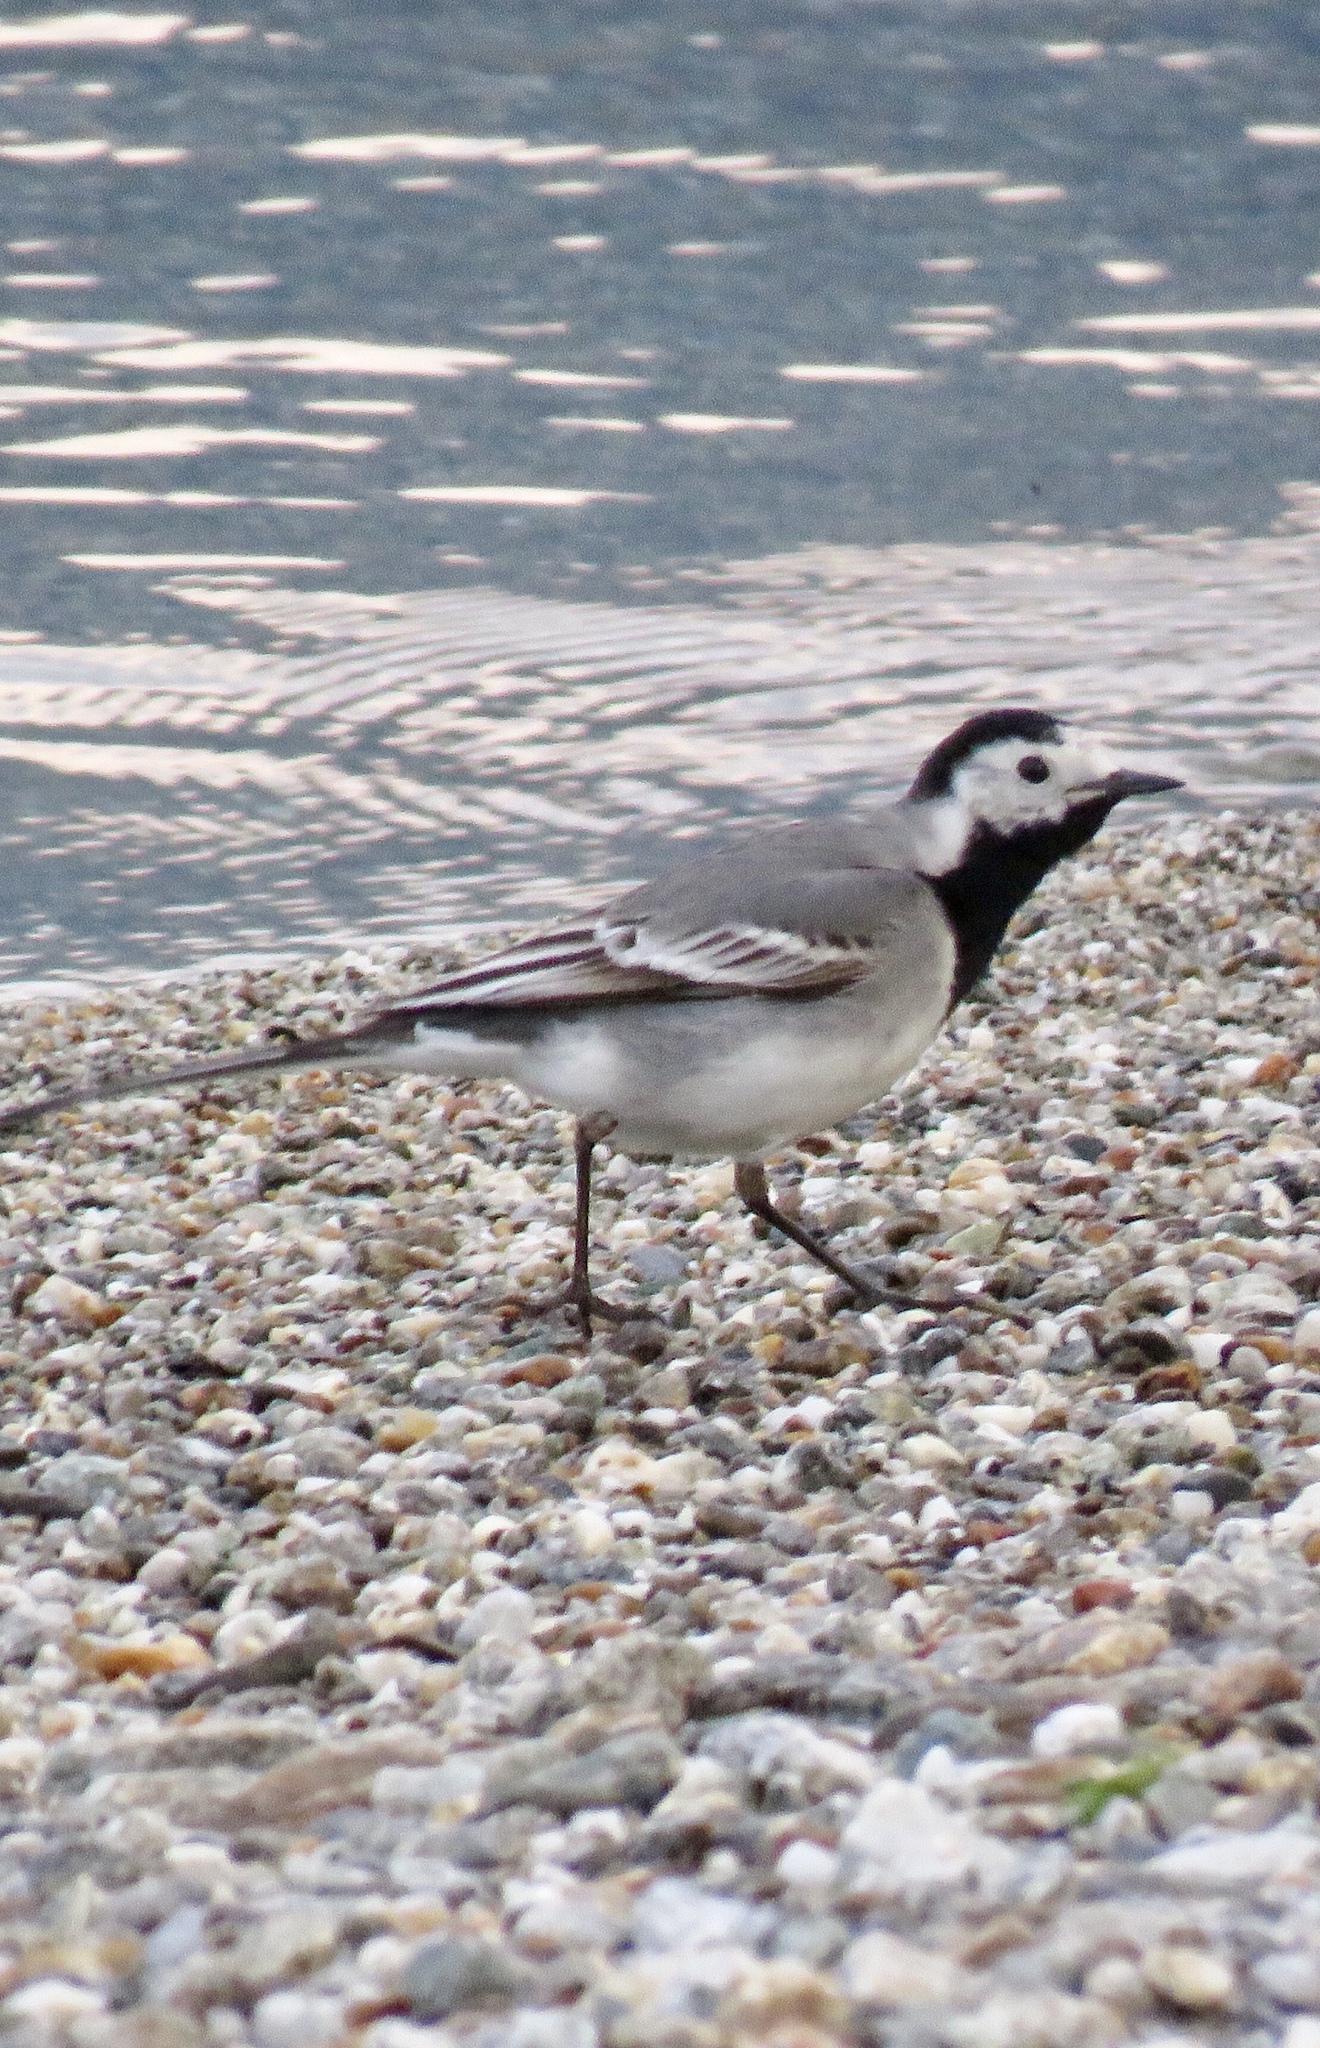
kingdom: Animalia
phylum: Chordata
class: Aves
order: Passeriformes
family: Motacillidae
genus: Motacilla
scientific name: Motacilla alba
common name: White wagtail
